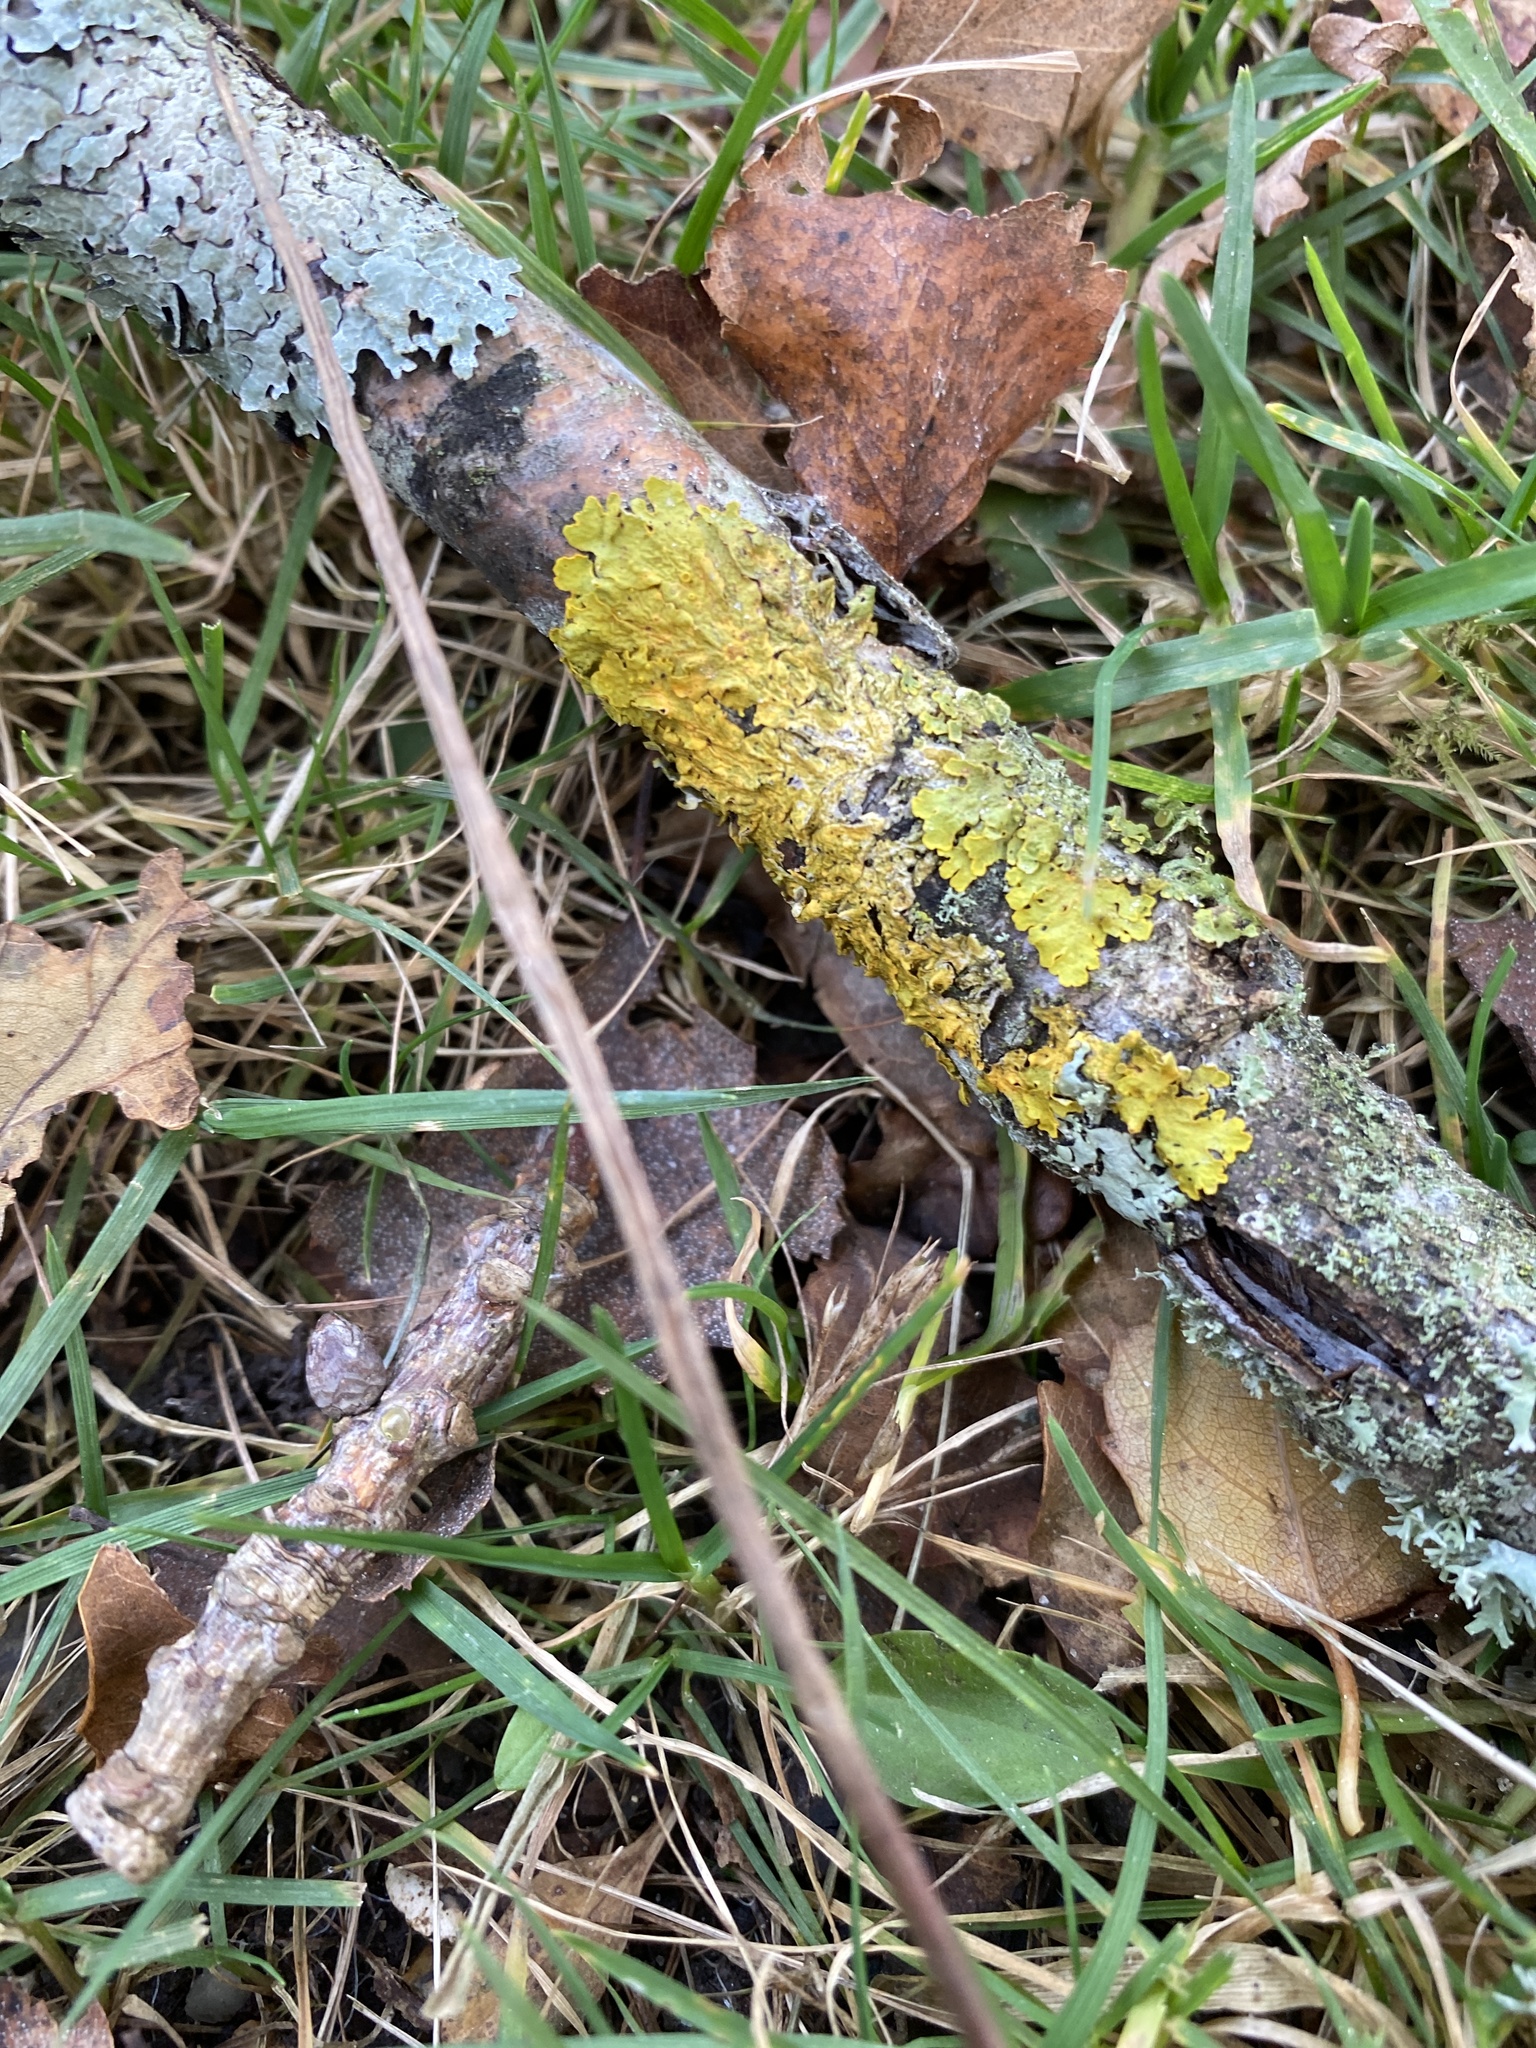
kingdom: Fungi
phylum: Ascomycota
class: Lecanoromycetes
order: Teloschistales
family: Teloschistaceae
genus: Xanthoria
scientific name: Xanthoria parietina
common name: Common orange lichen
